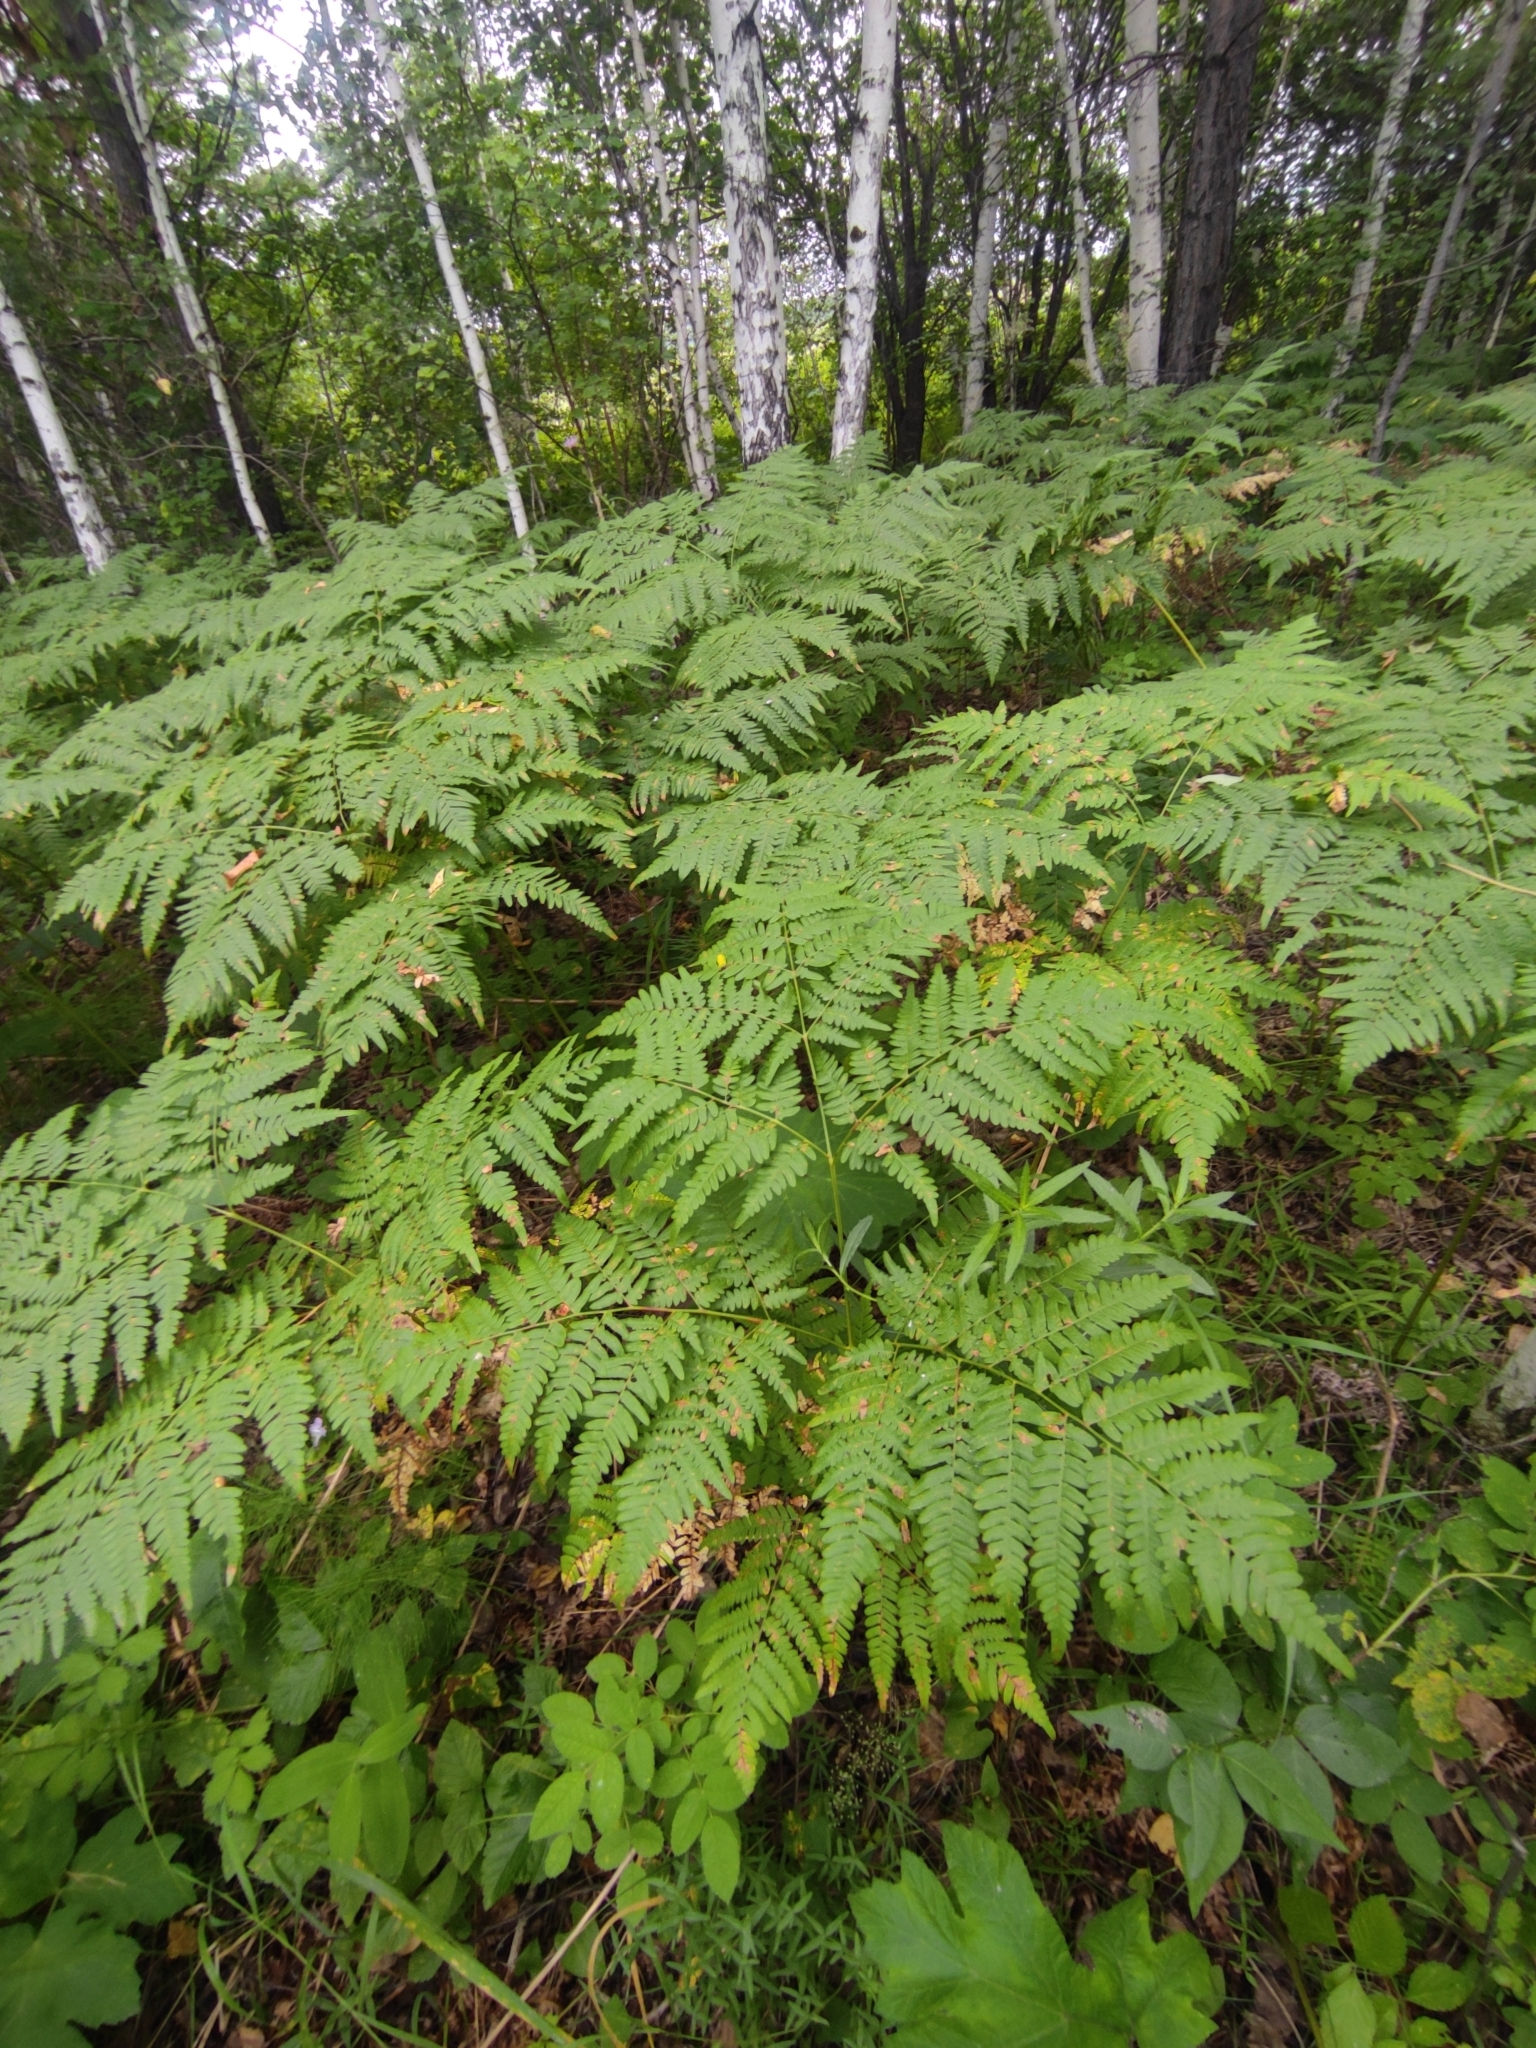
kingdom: Plantae
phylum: Tracheophyta
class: Polypodiopsida
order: Polypodiales
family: Dennstaedtiaceae
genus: Pteridium
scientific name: Pteridium aquilinum
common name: Bracken
